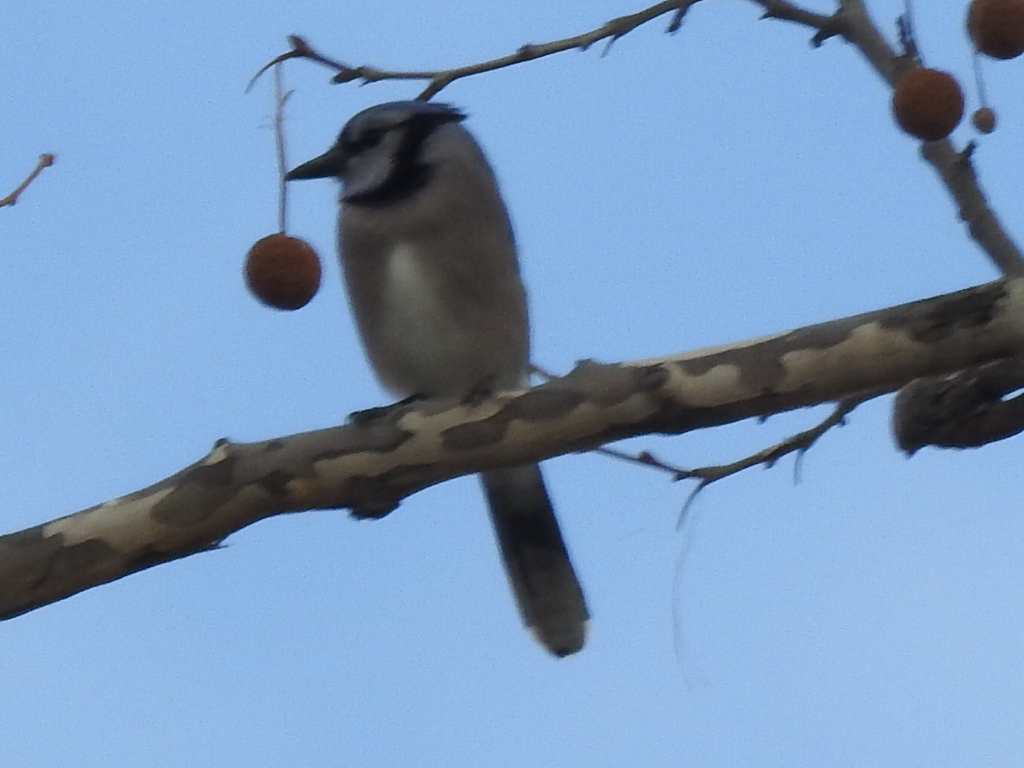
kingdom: Animalia
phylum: Chordata
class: Aves
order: Passeriformes
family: Corvidae
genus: Cyanocitta
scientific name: Cyanocitta cristata
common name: Blue jay
